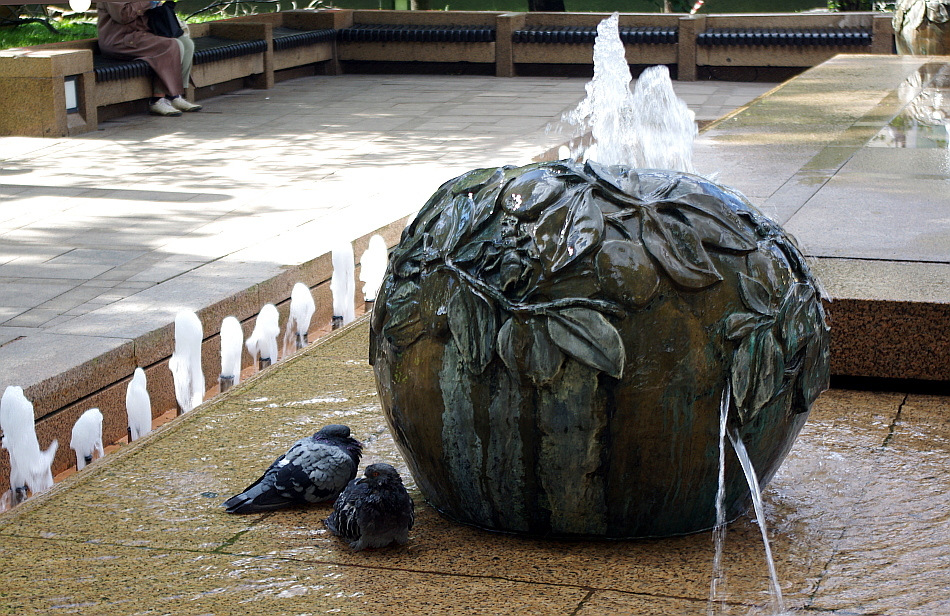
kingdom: Animalia
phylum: Chordata
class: Aves
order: Columbiformes
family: Columbidae
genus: Columba
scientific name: Columba livia
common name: Rock pigeon
